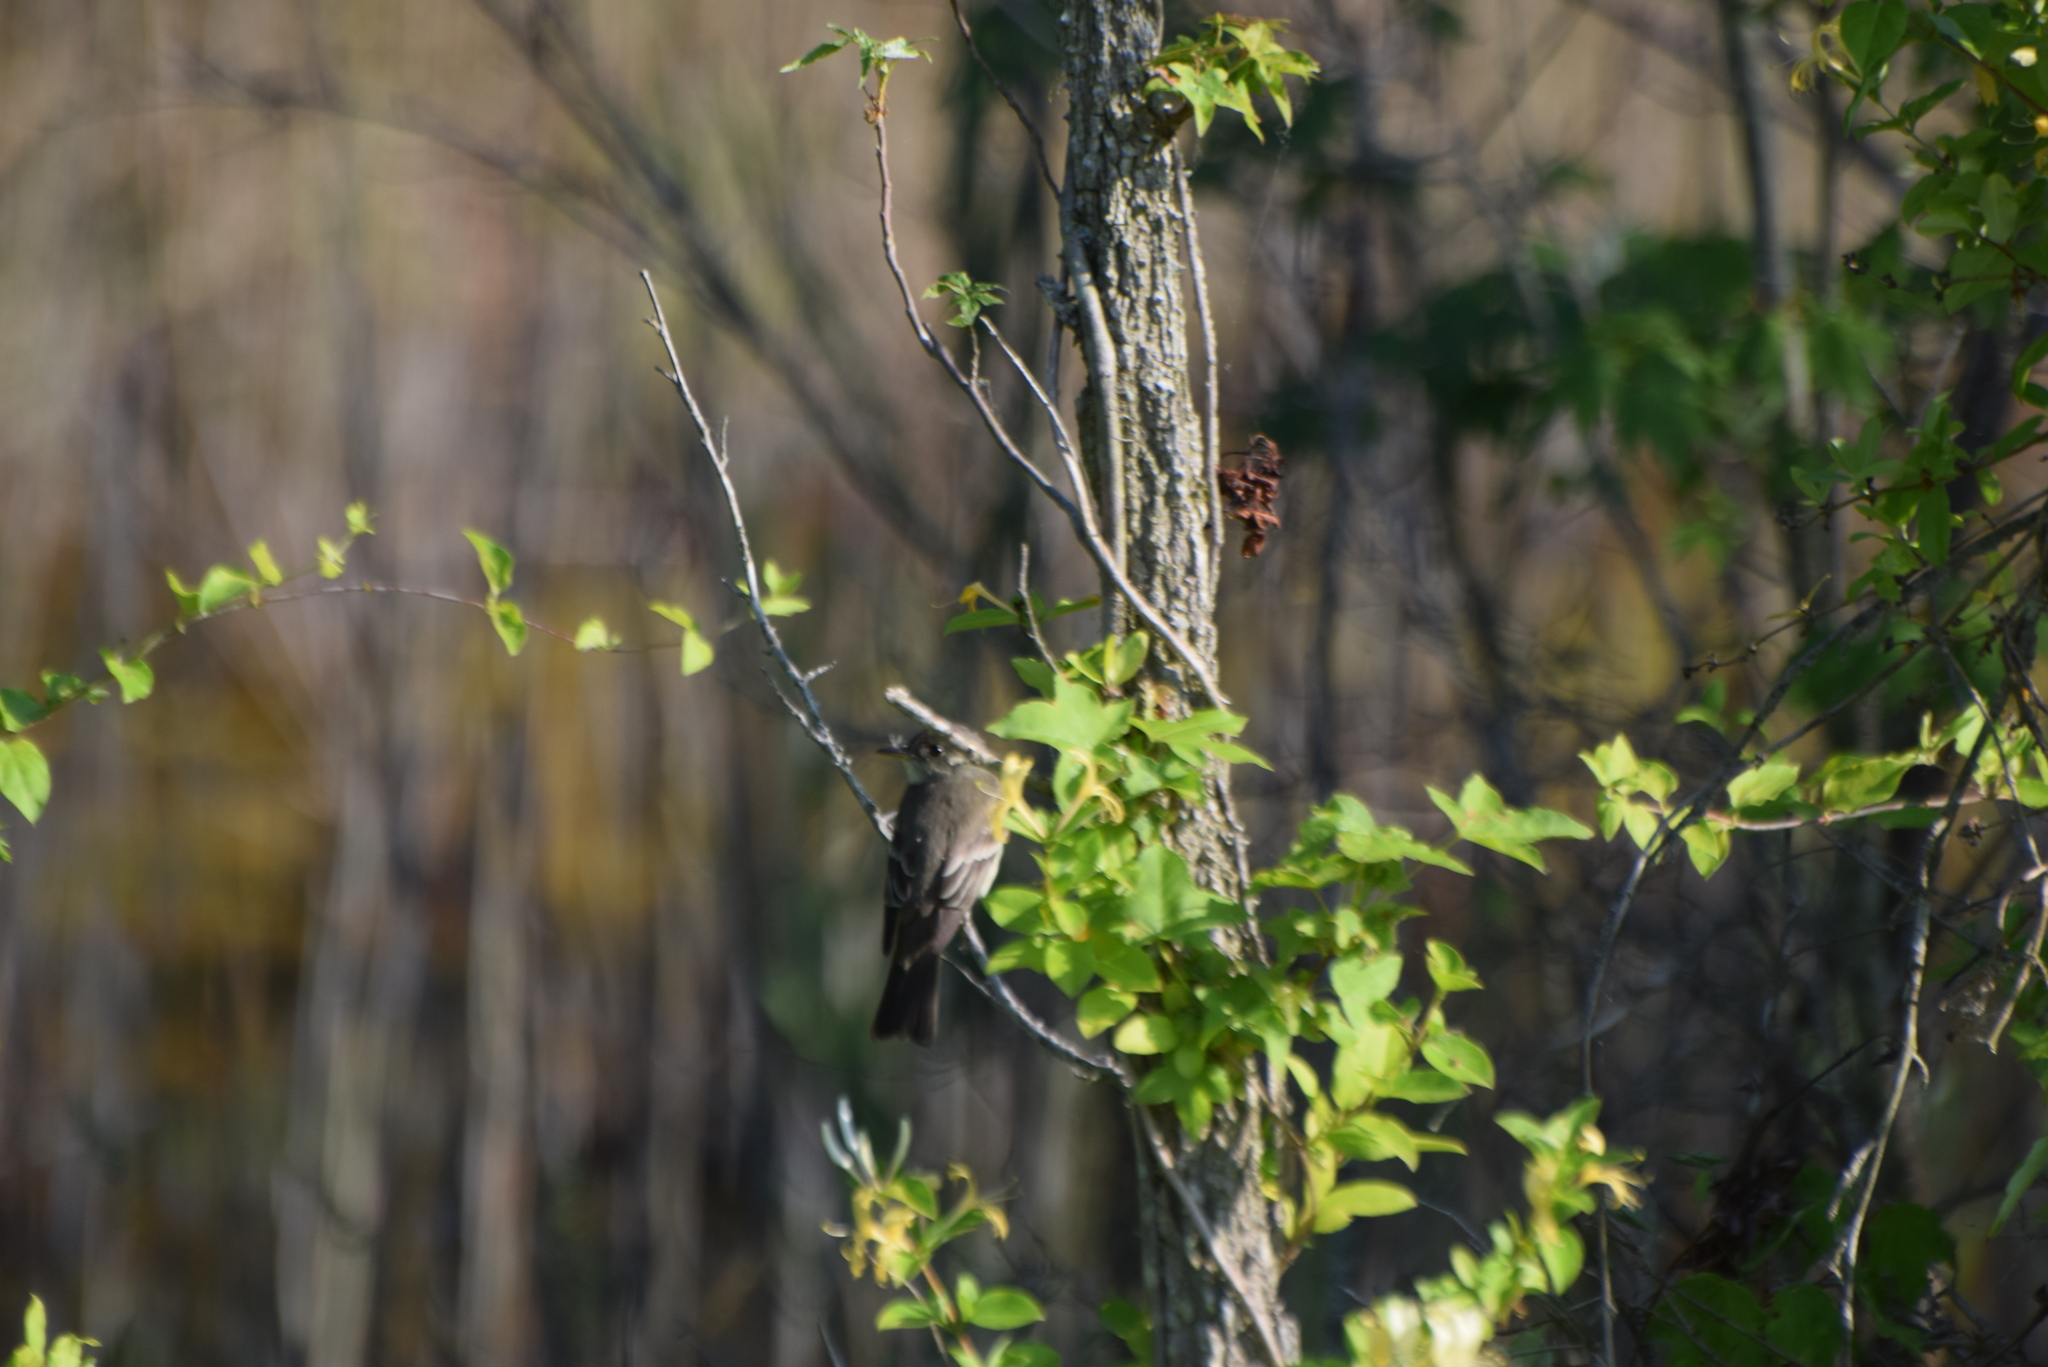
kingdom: Animalia
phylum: Chordata
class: Aves
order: Passeriformes
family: Tyrannidae
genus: Contopus
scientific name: Contopus virens
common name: Eastern wood-pewee
